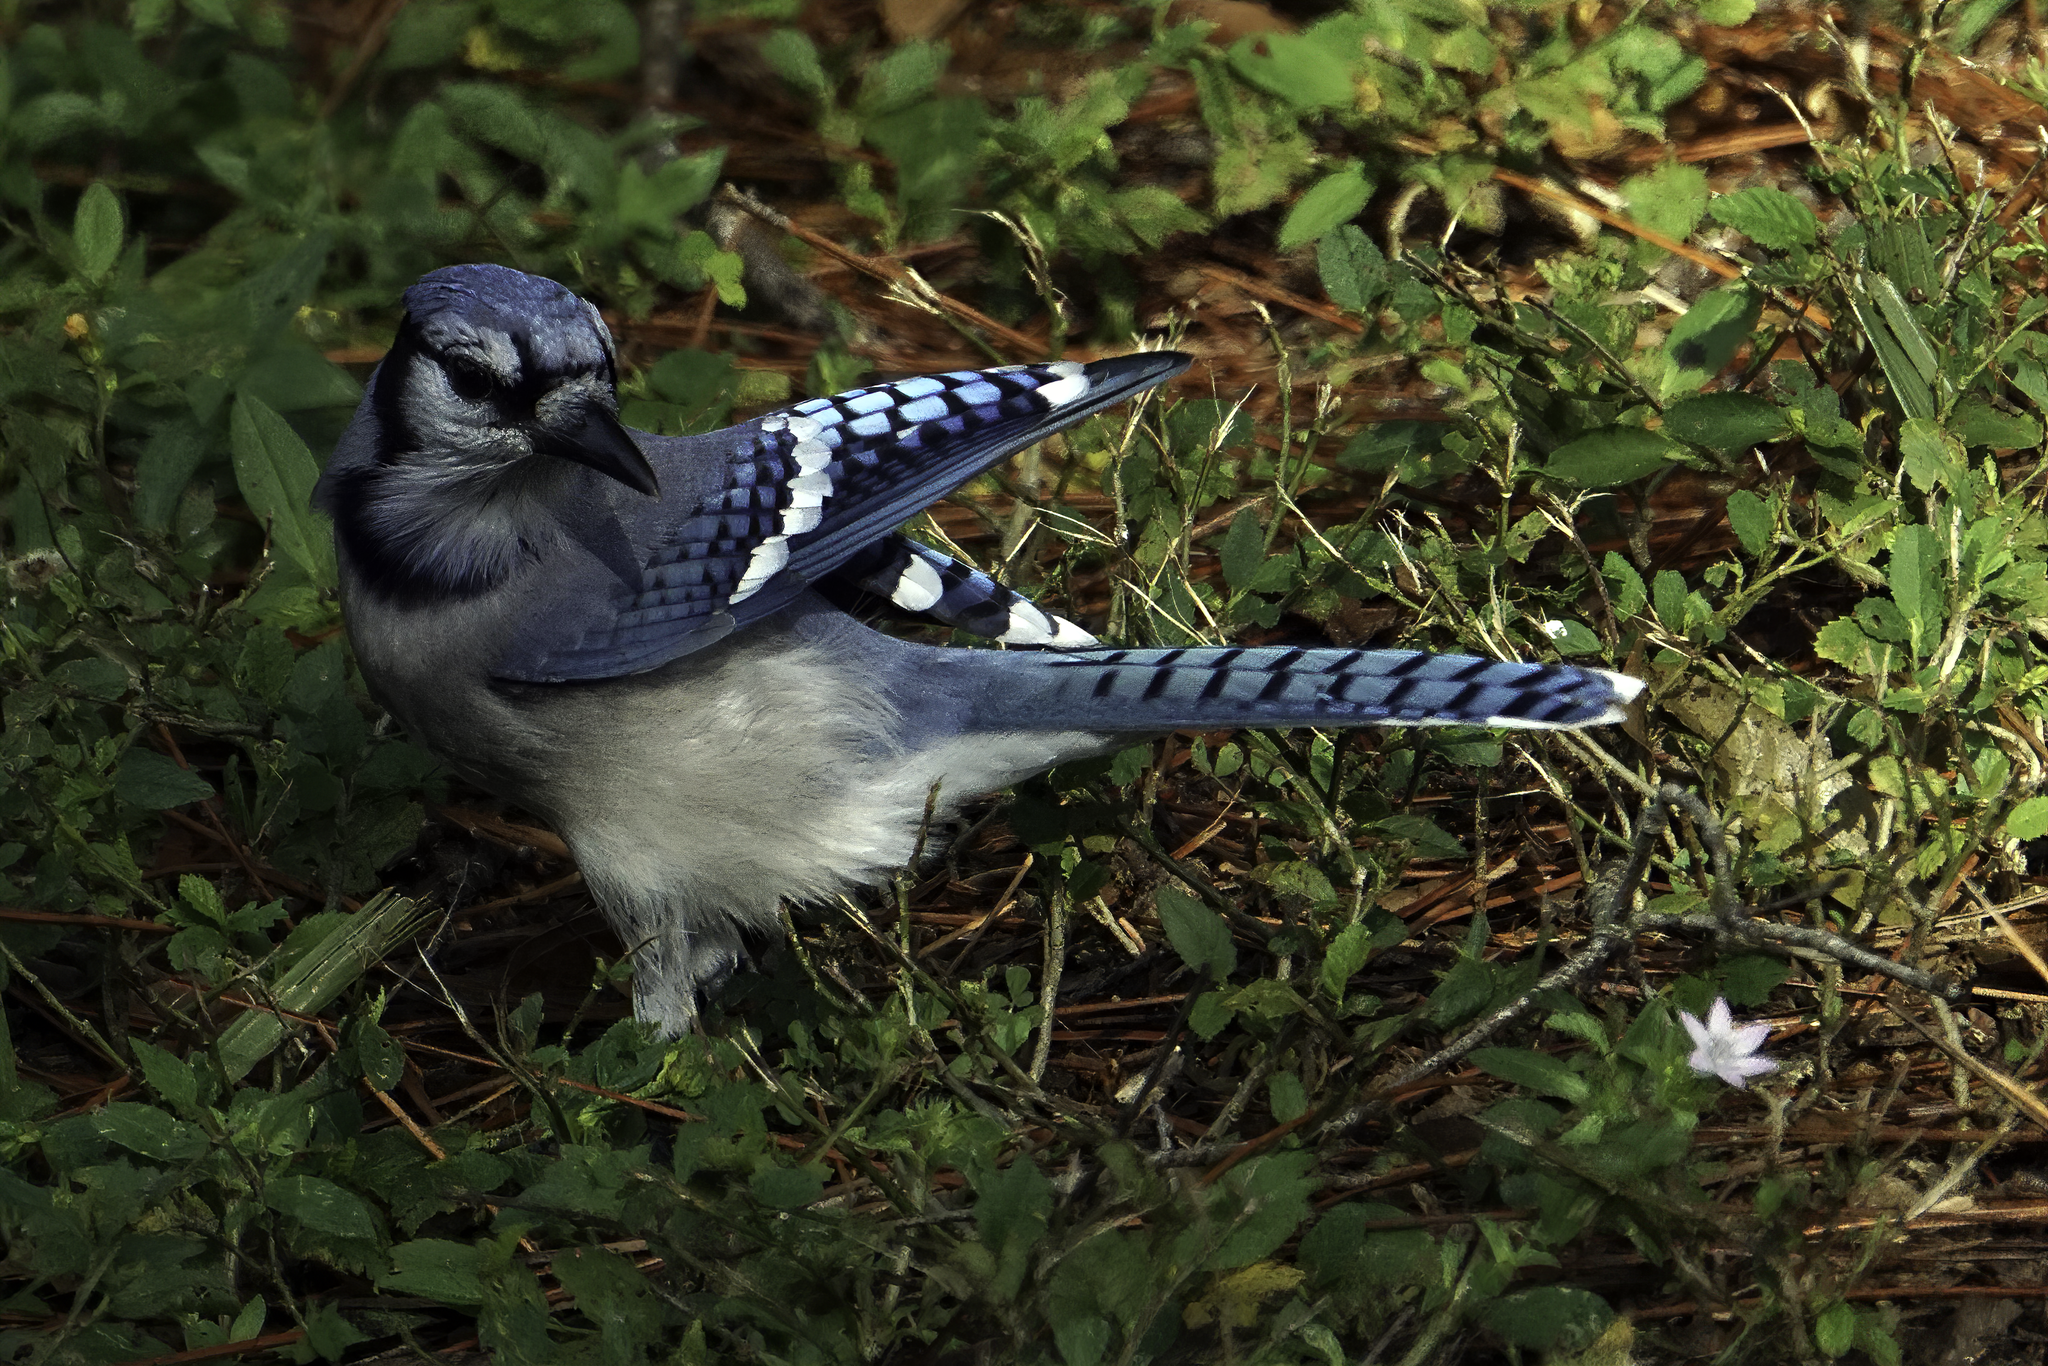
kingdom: Animalia
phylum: Chordata
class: Aves
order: Passeriformes
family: Corvidae
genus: Cyanocitta
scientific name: Cyanocitta cristata
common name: Blue jay
